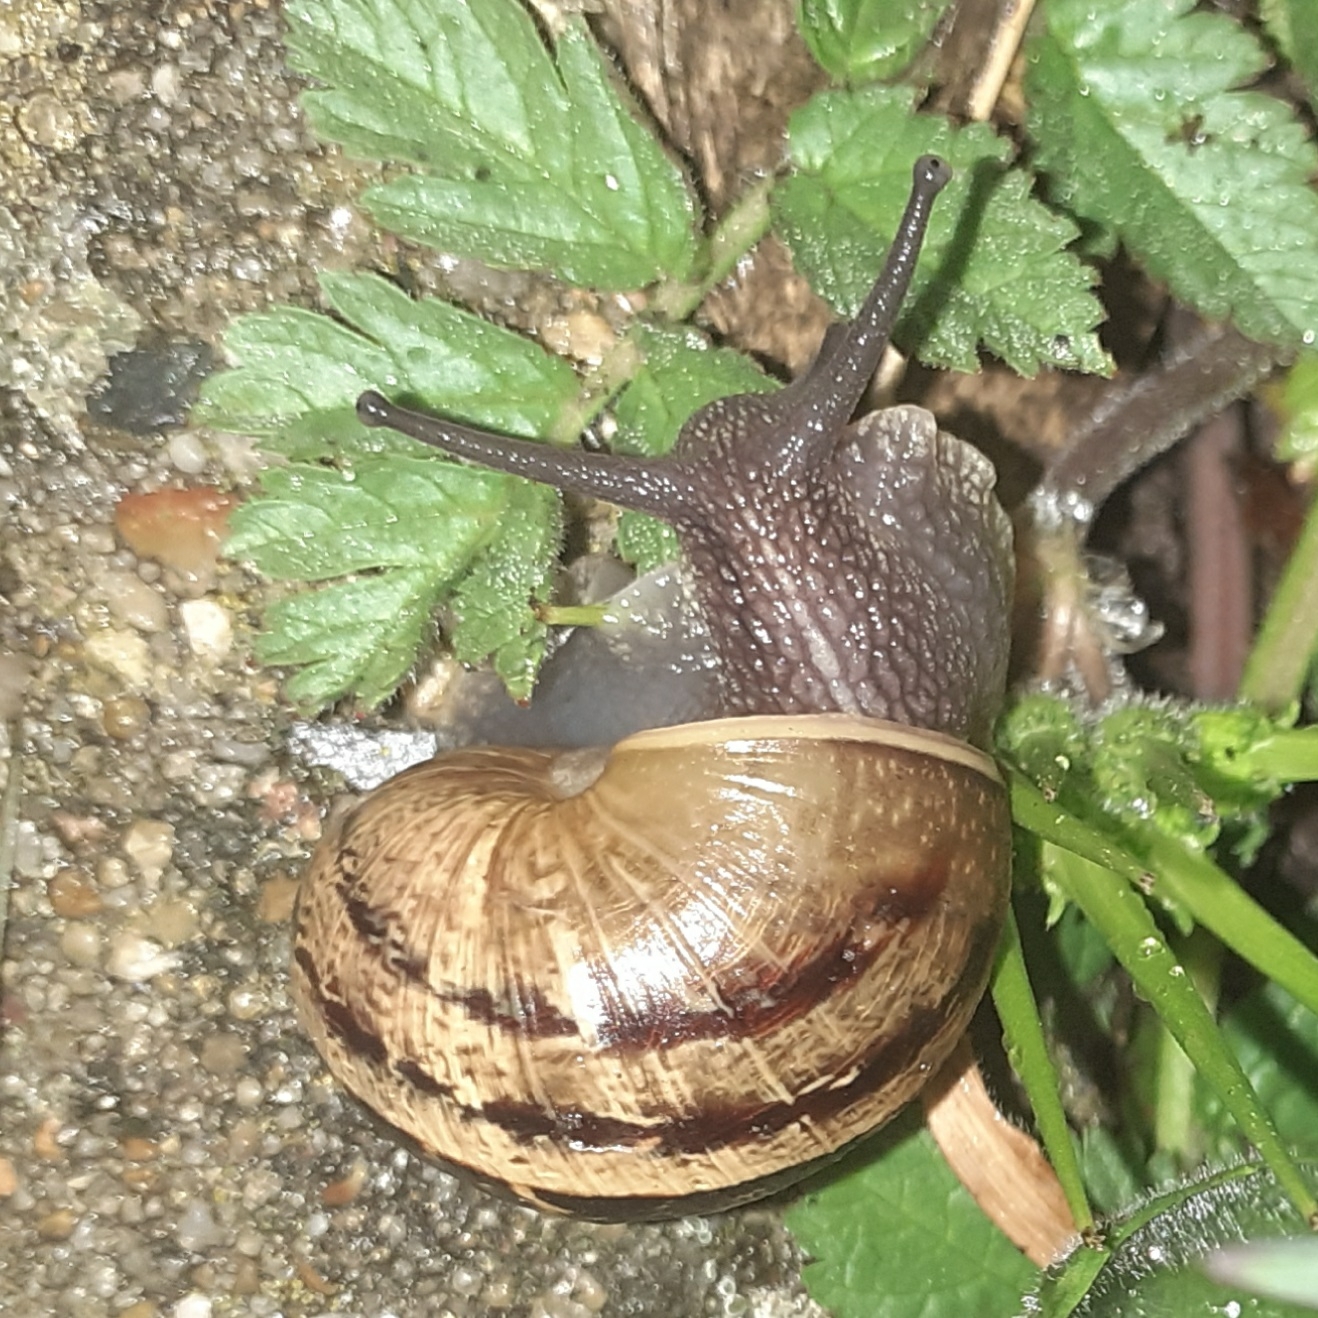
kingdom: Animalia
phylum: Mollusca
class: Gastropoda
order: Stylommatophora
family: Helicidae
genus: Cornu
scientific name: Cornu aspersum
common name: Brown garden snail
